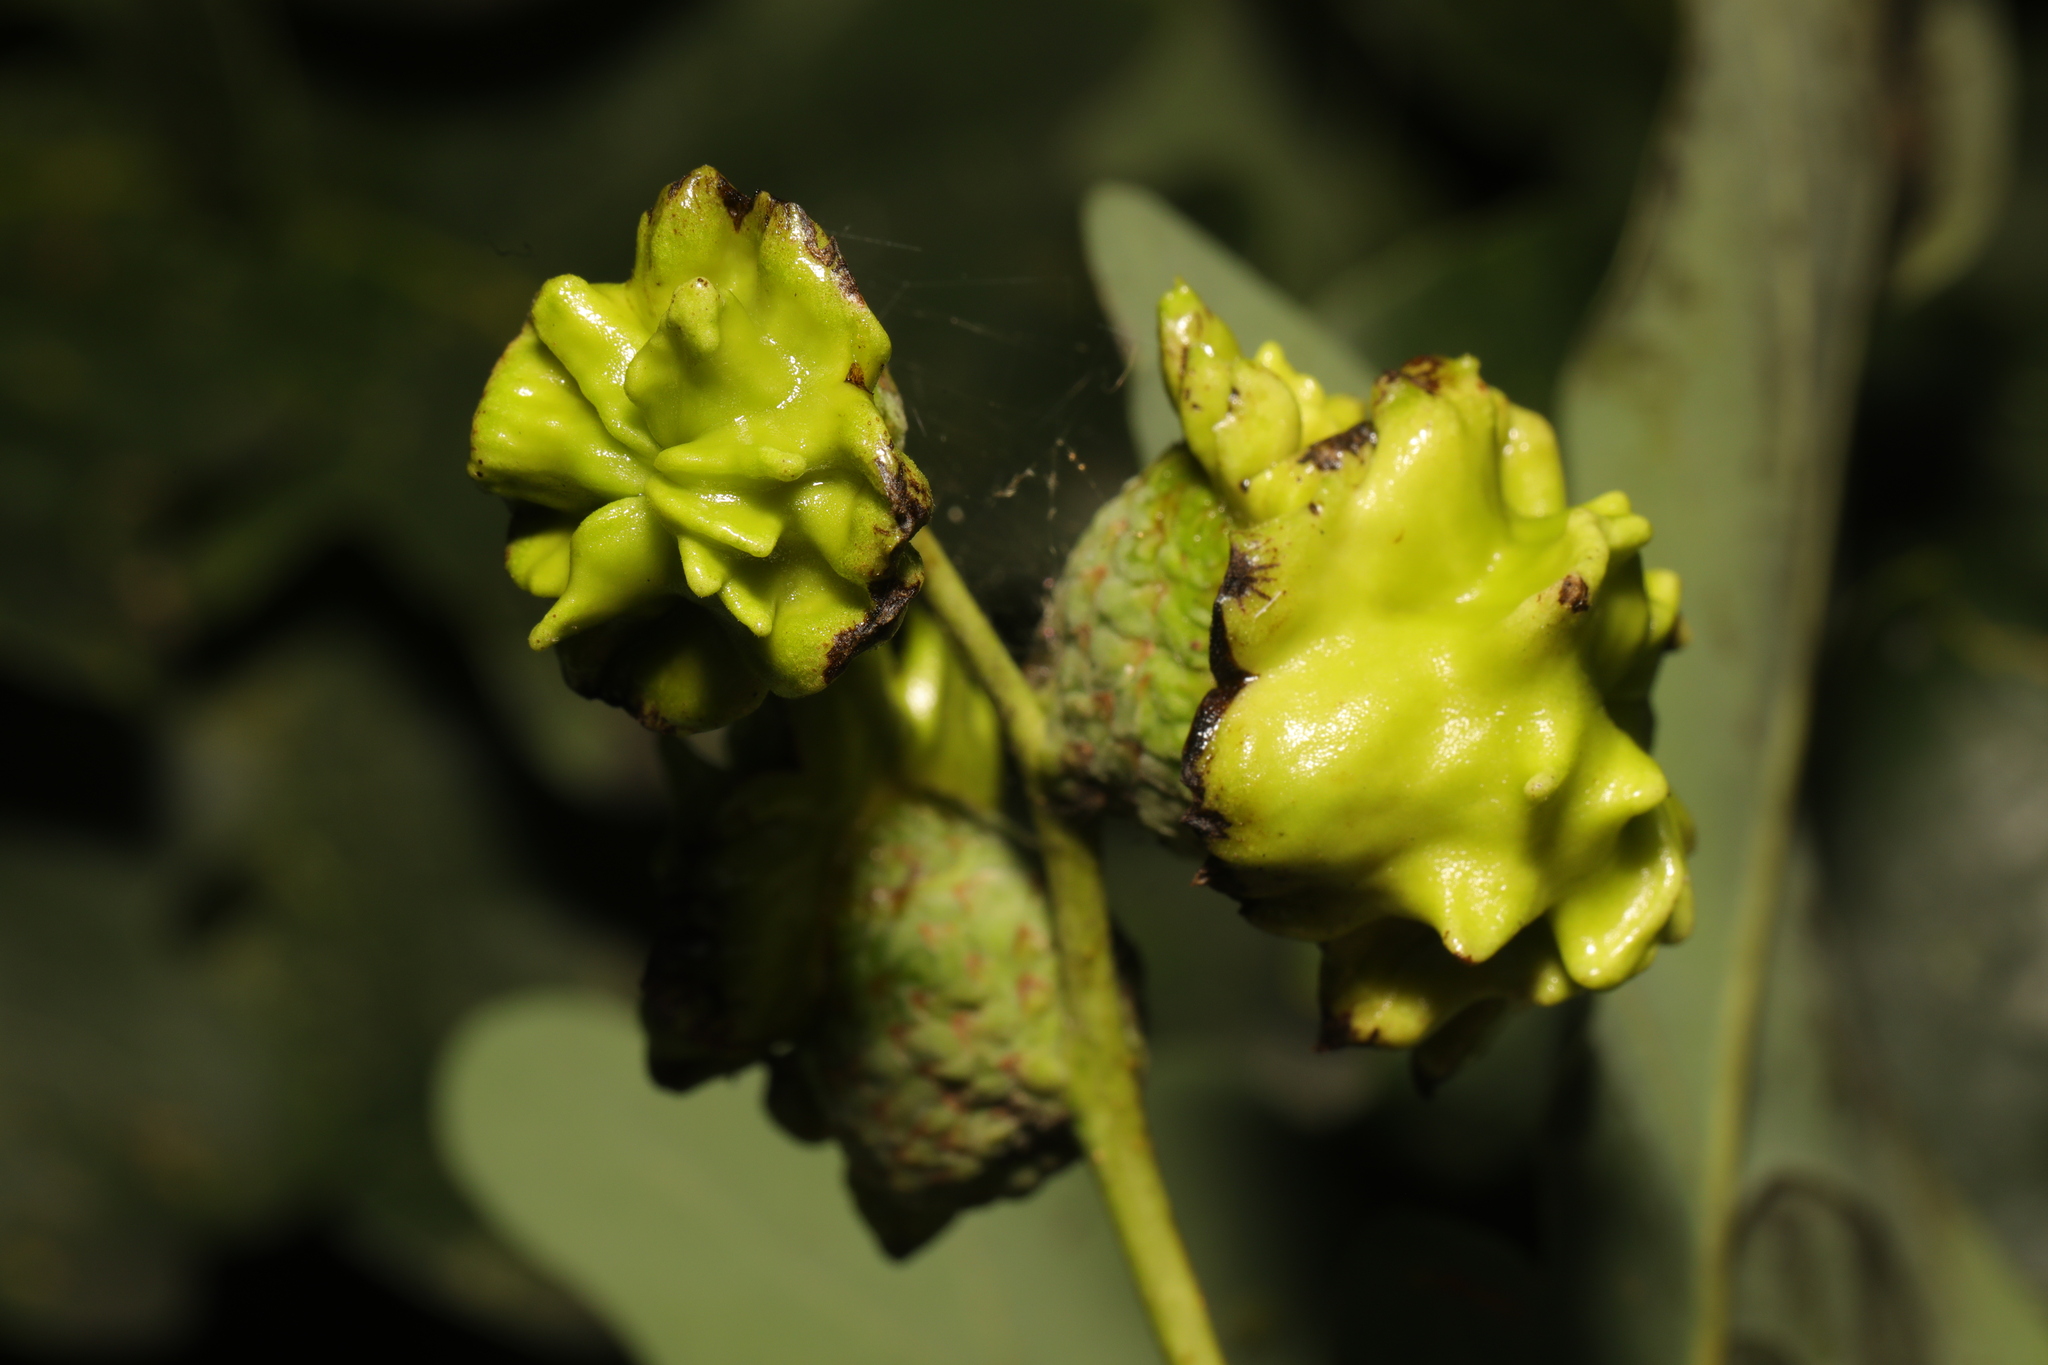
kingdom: Animalia
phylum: Arthropoda
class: Insecta
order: Hymenoptera
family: Cynipidae
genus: Andricus
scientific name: Andricus quercuscalicis
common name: Knopper gall
